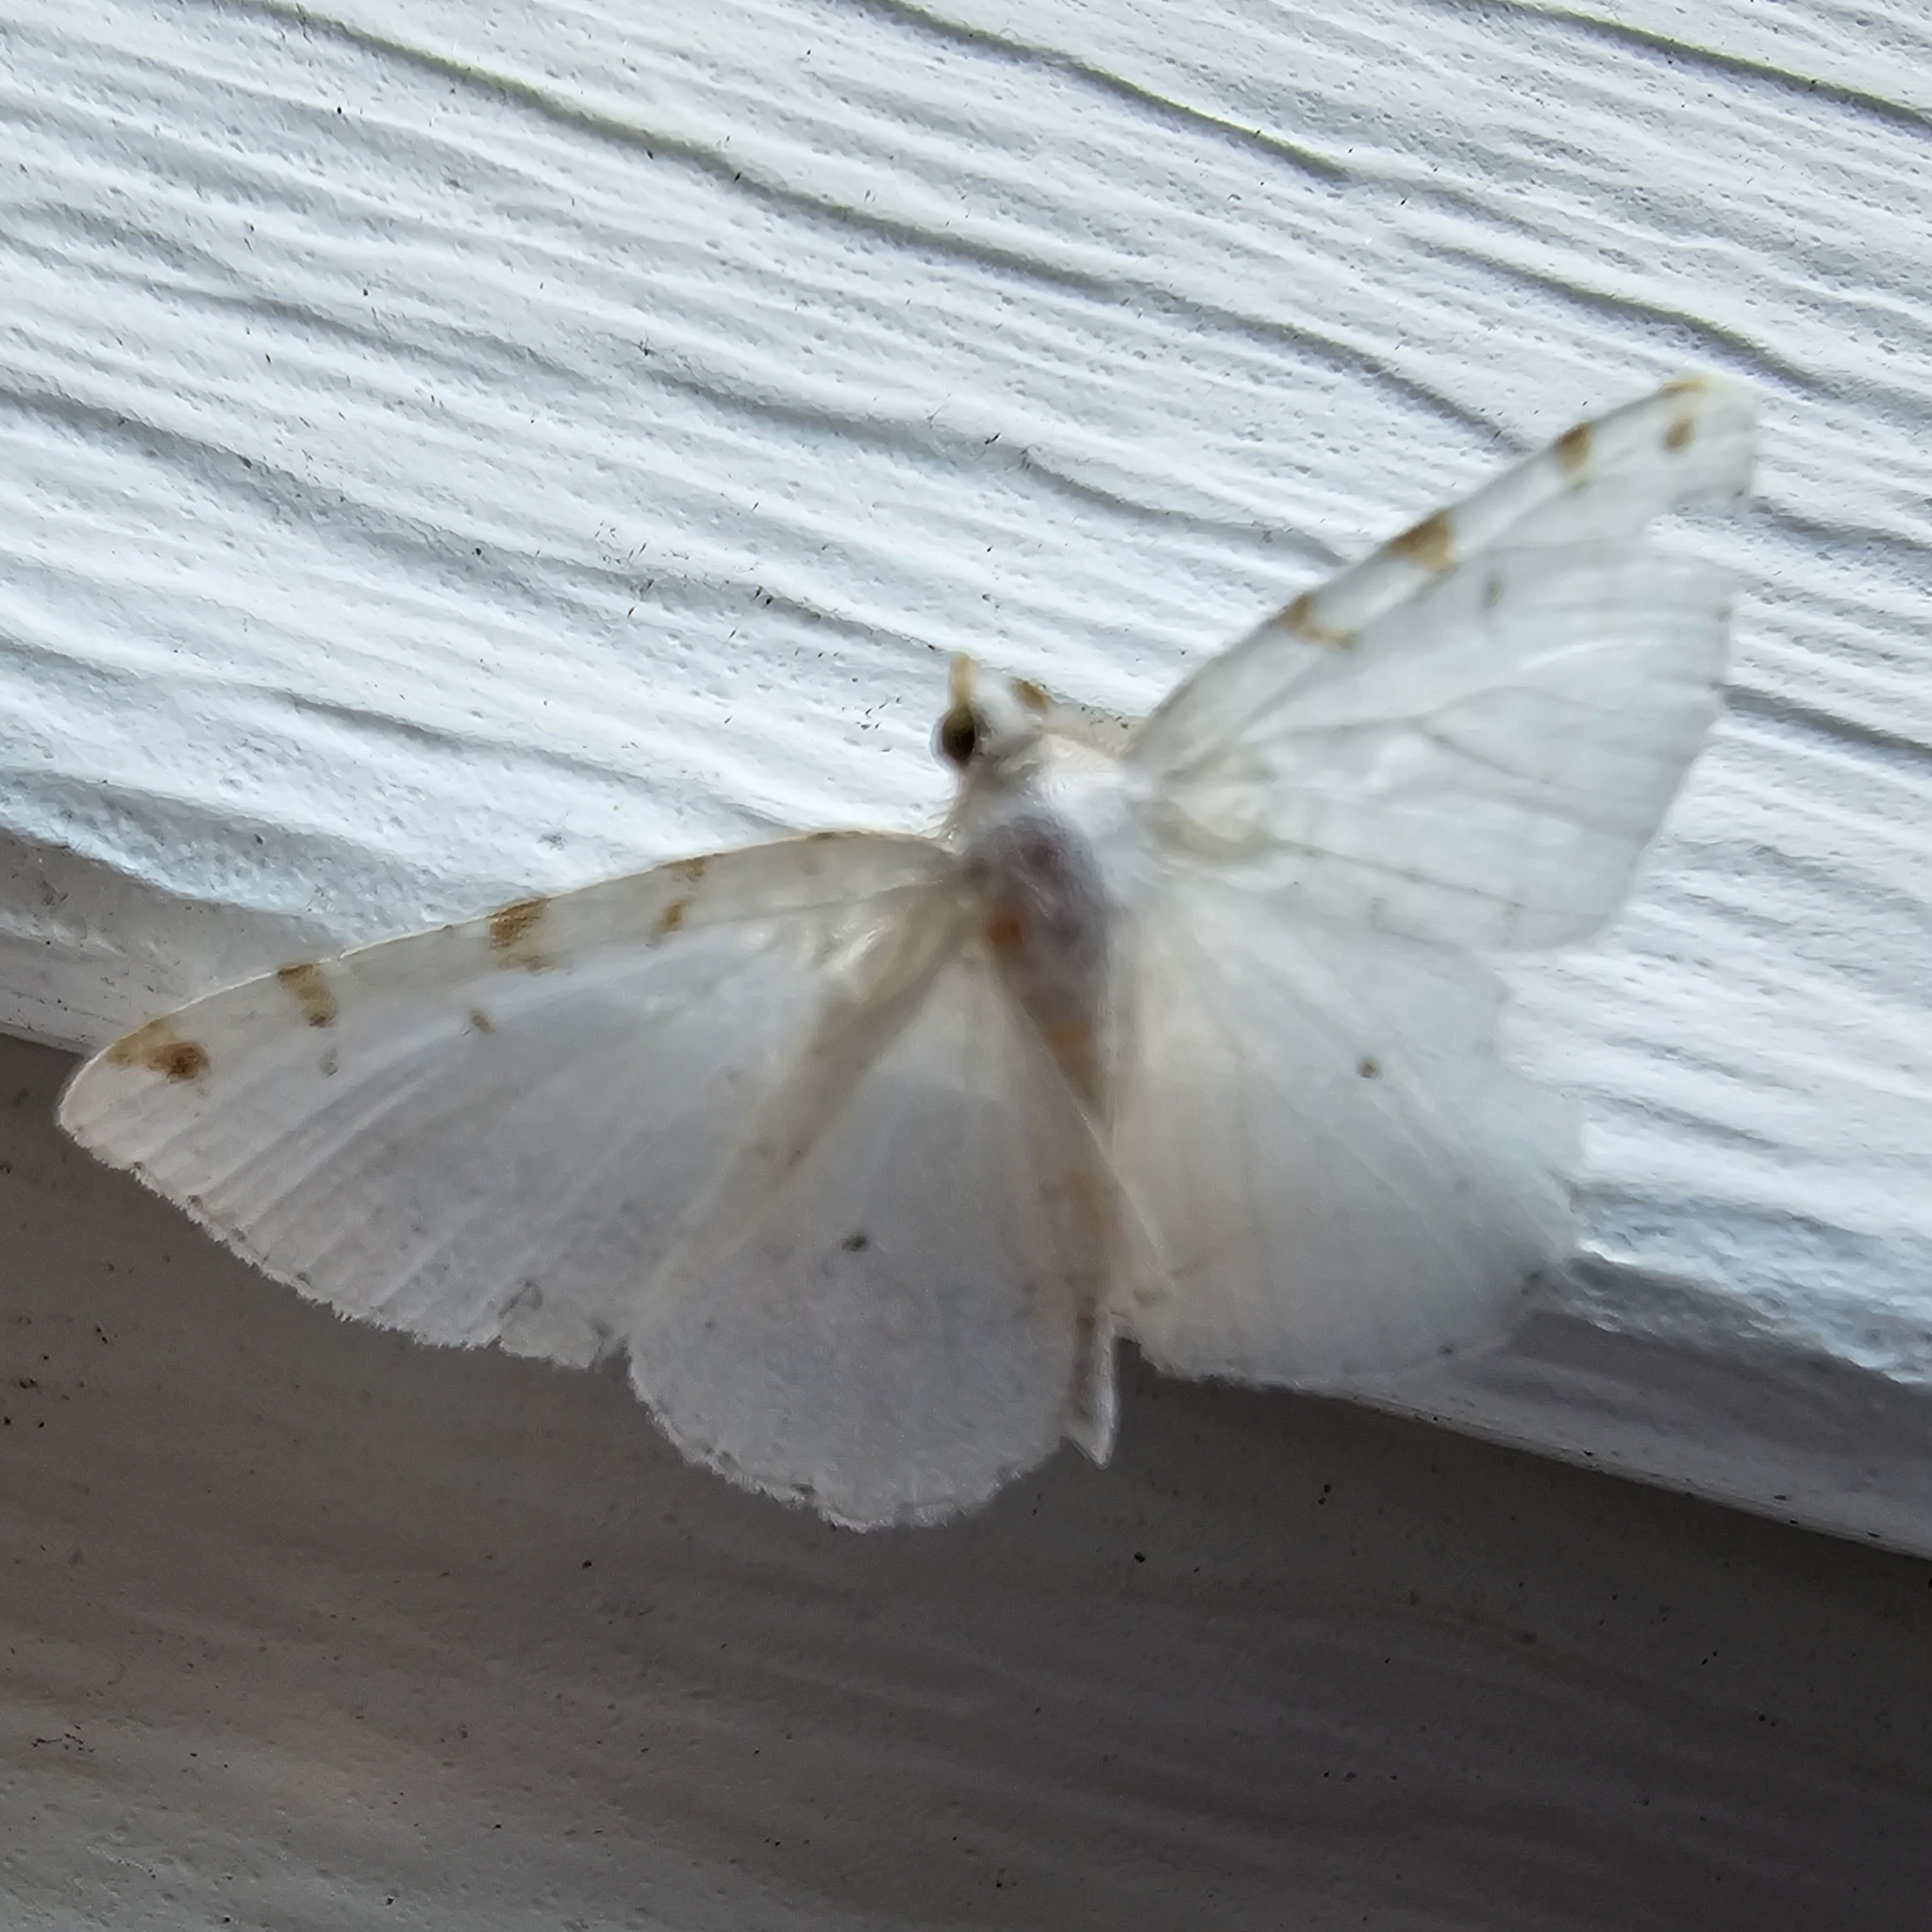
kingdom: Animalia
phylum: Arthropoda
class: Insecta
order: Lepidoptera
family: Geometridae
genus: Macaria
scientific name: Macaria pustularia
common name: Lesser maple spanworm moth
